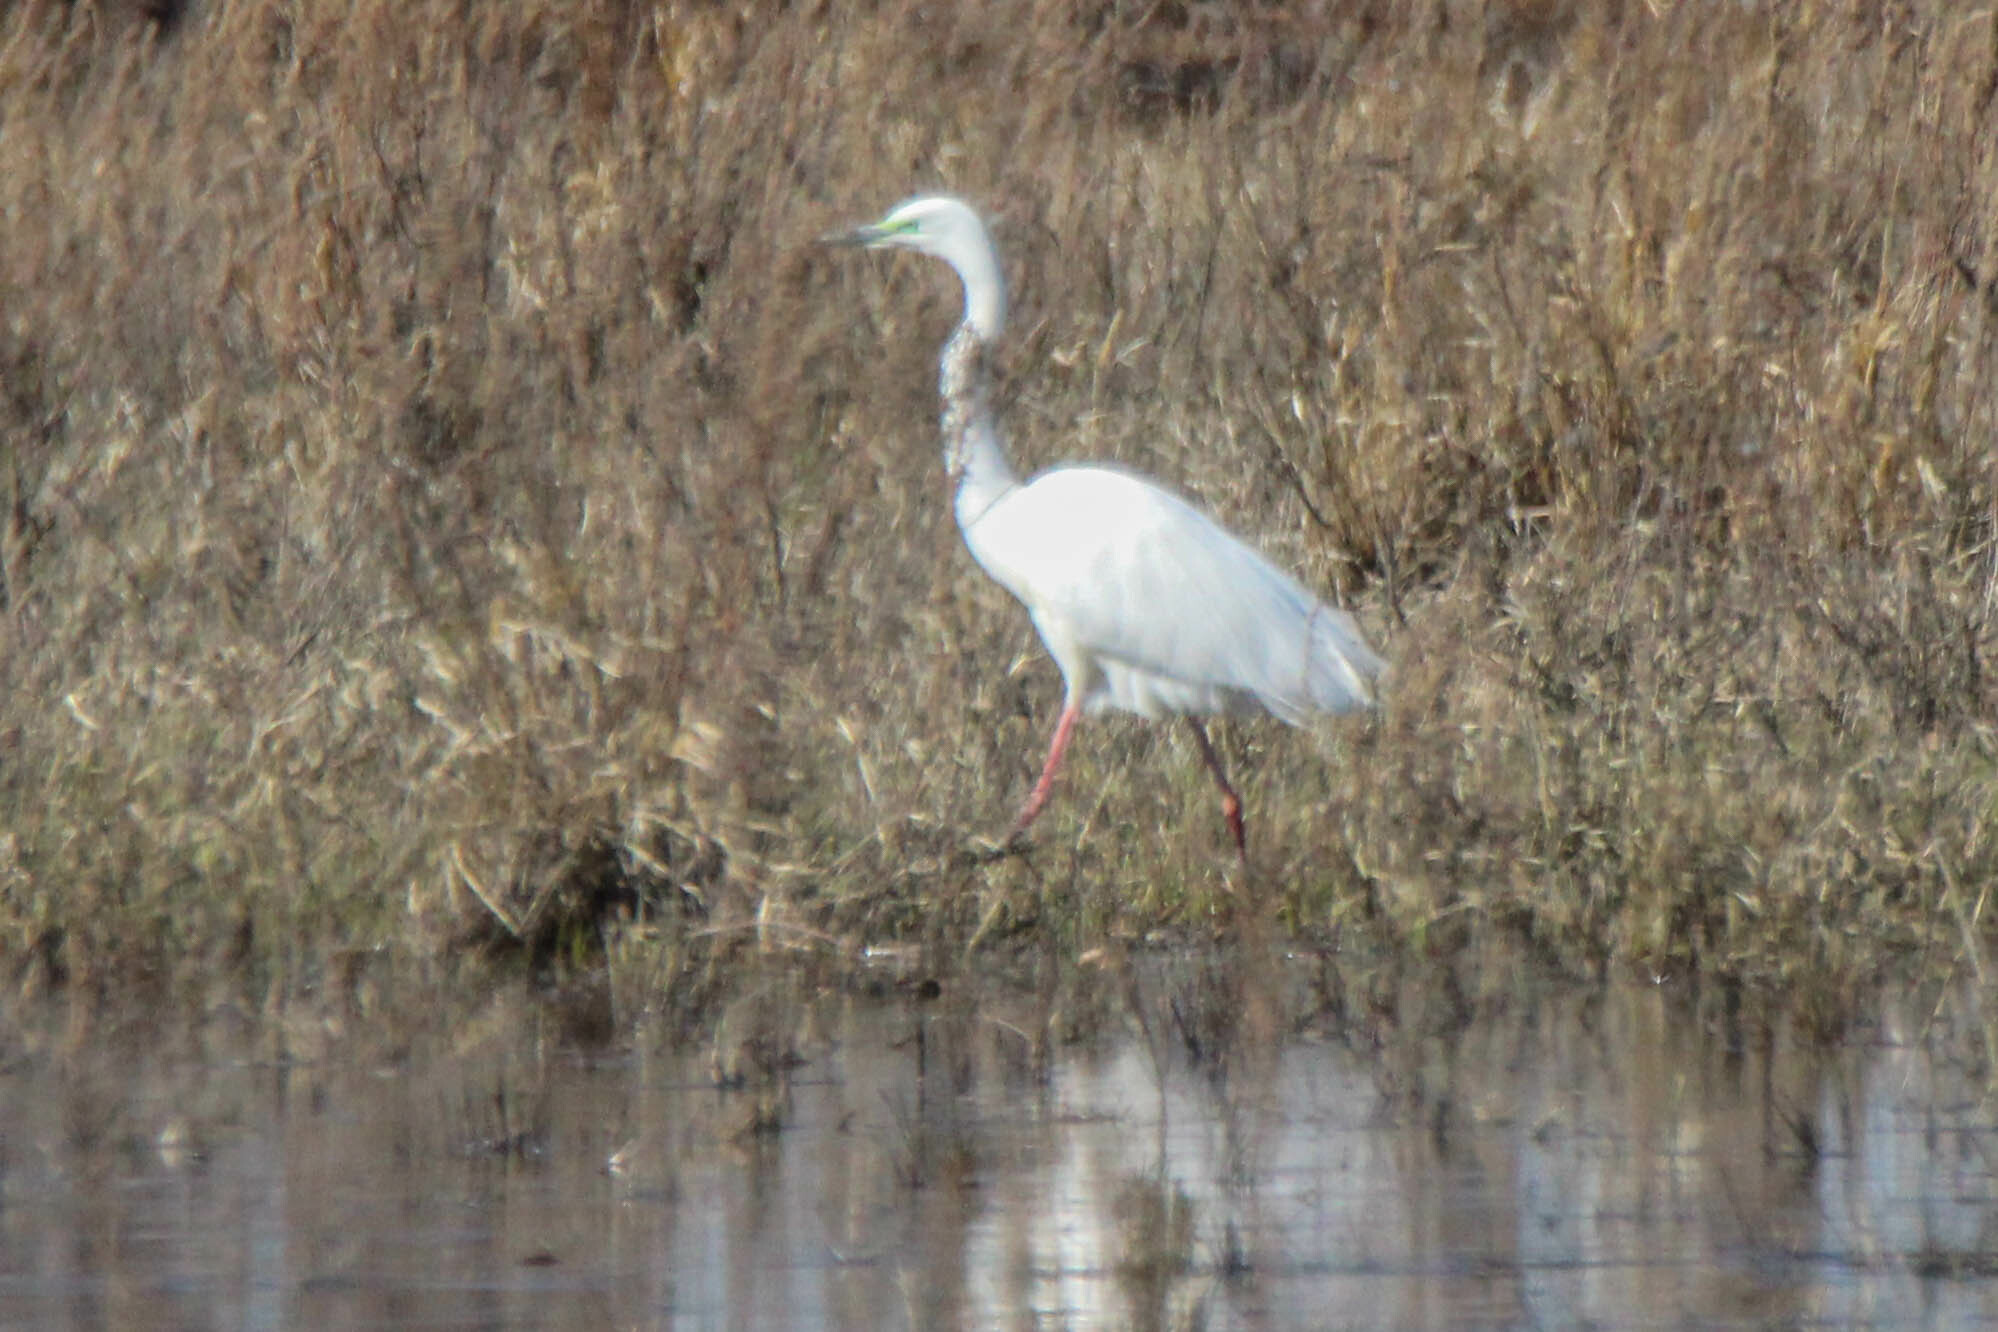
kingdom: Animalia
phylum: Chordata
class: Aves
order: Pelecaniformes
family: Ardeidae
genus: Ardea
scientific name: Ardea alba
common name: Great egret
